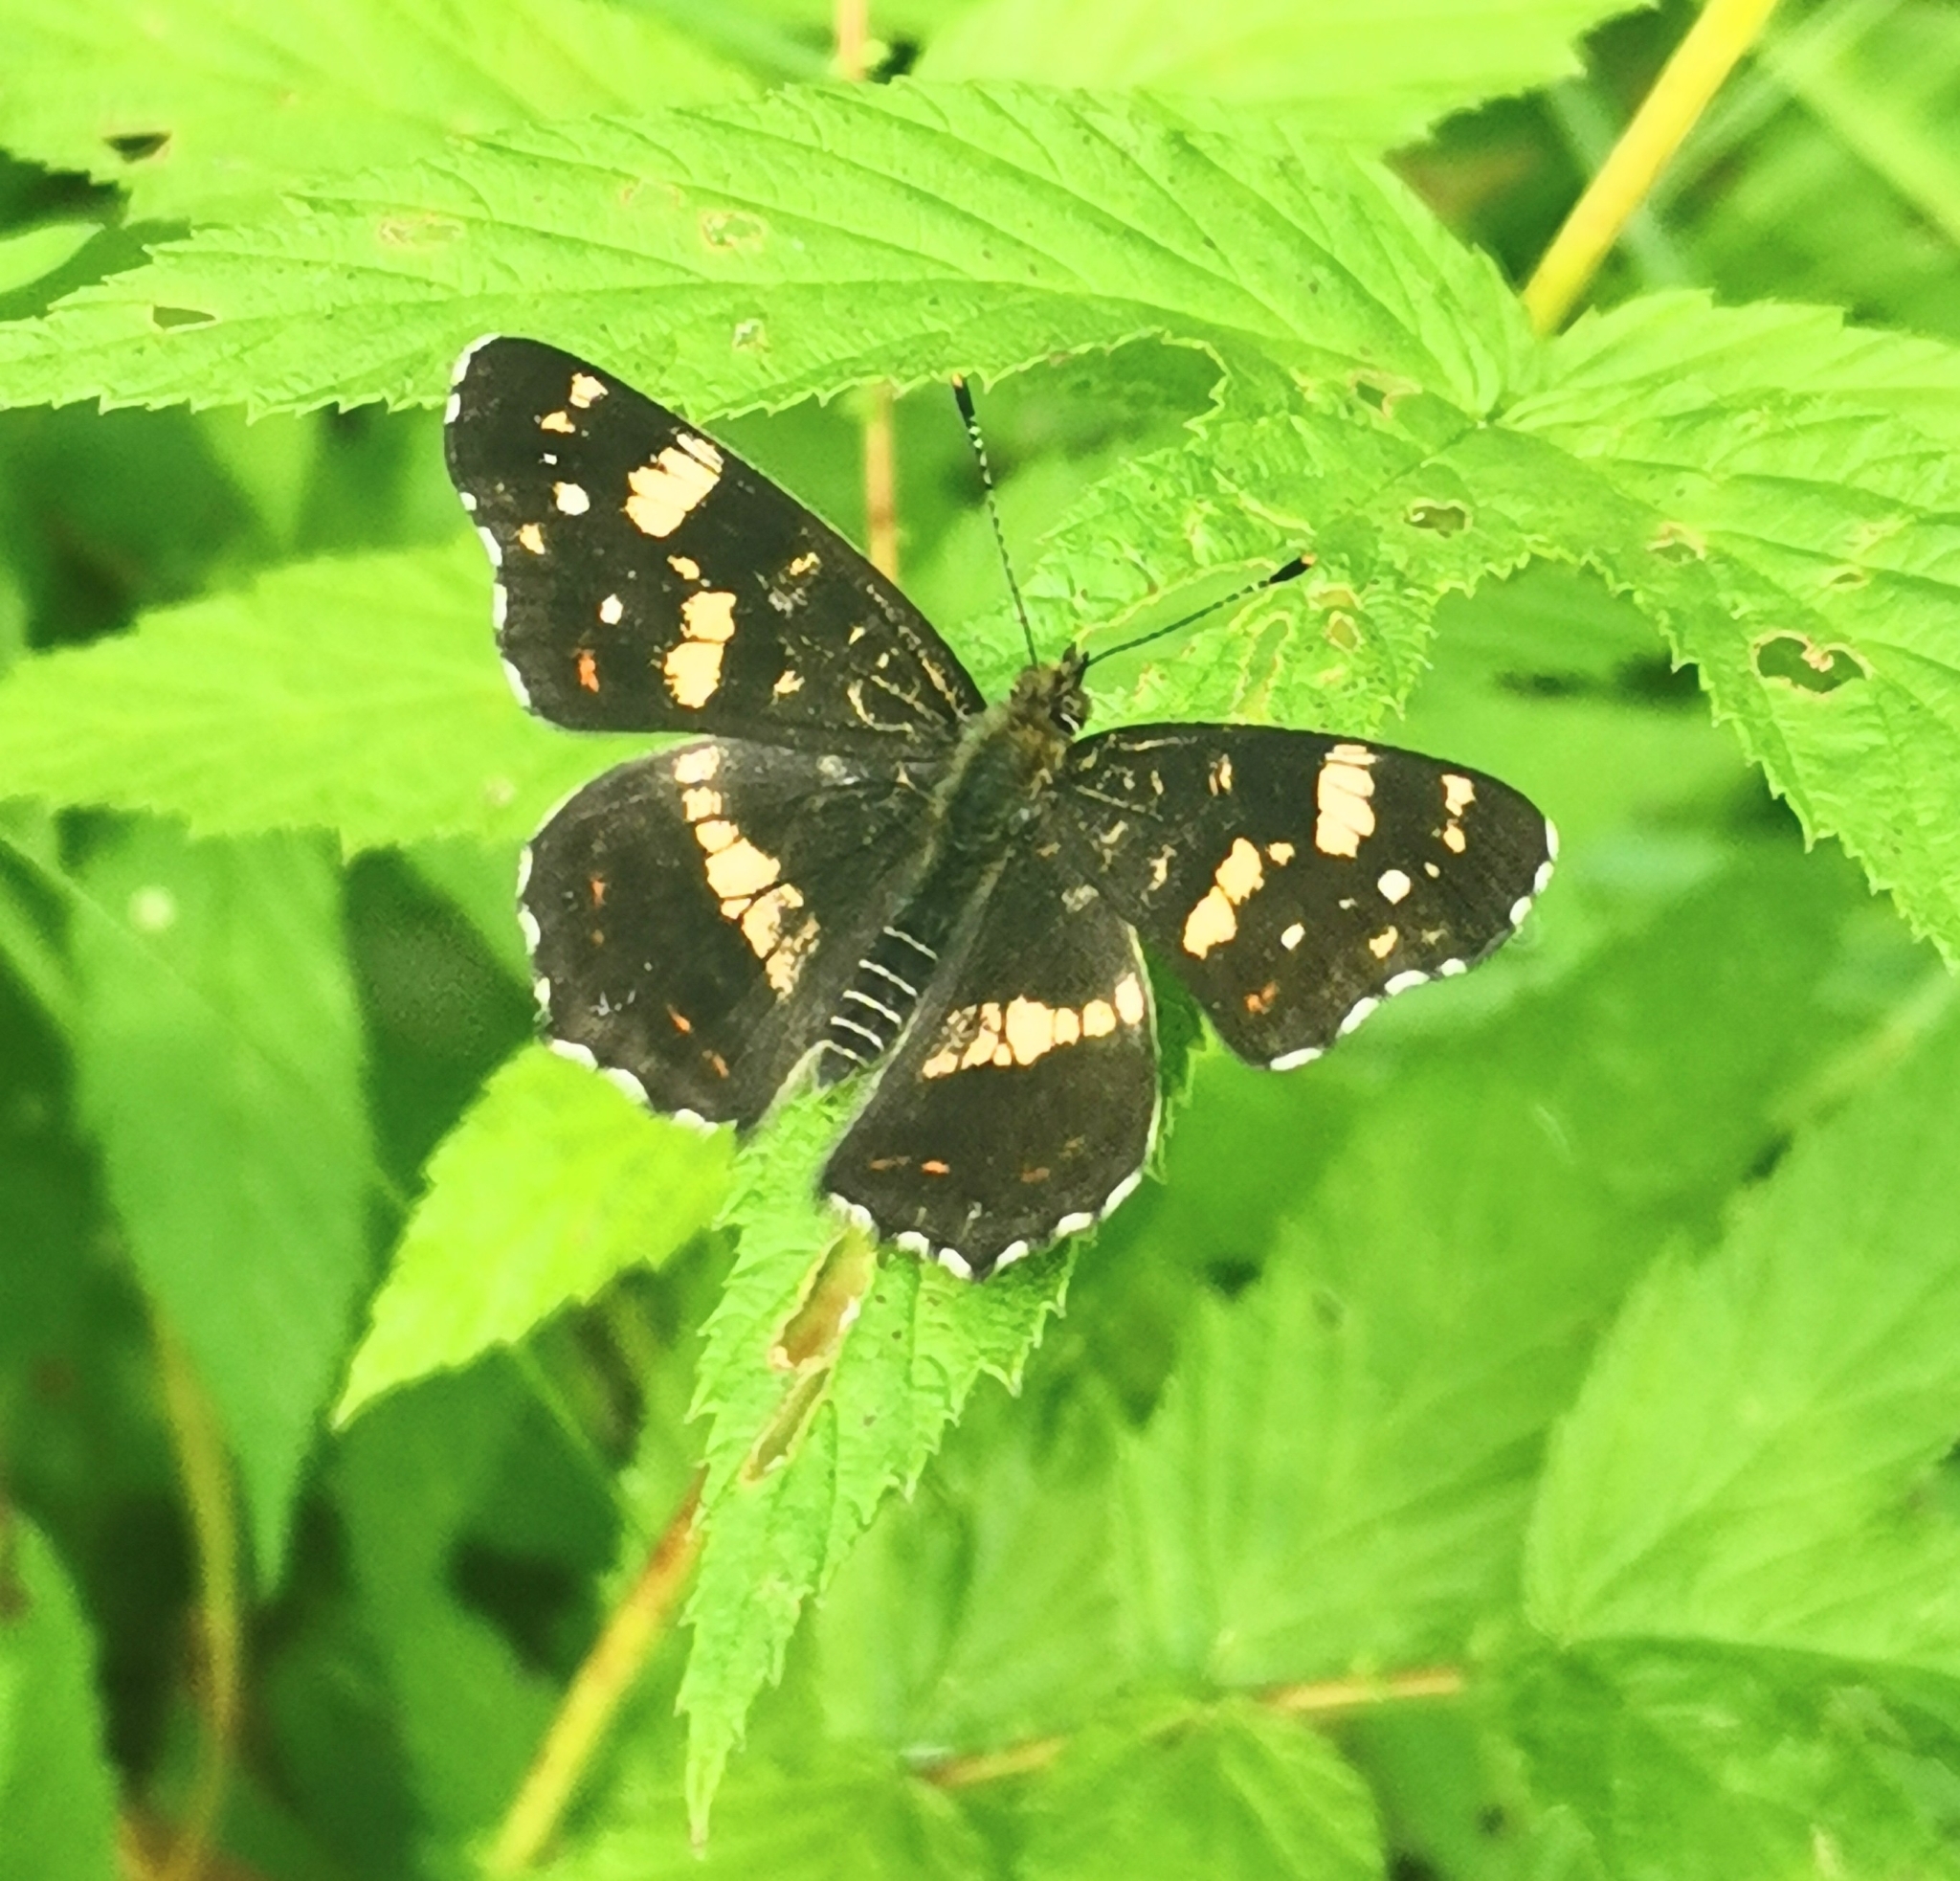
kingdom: Animalia
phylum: Arthropoda
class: Insecta
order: Lepidoptera
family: Nymphalidae
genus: Araschnia
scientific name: Araschnia levana
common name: Map butterfly
